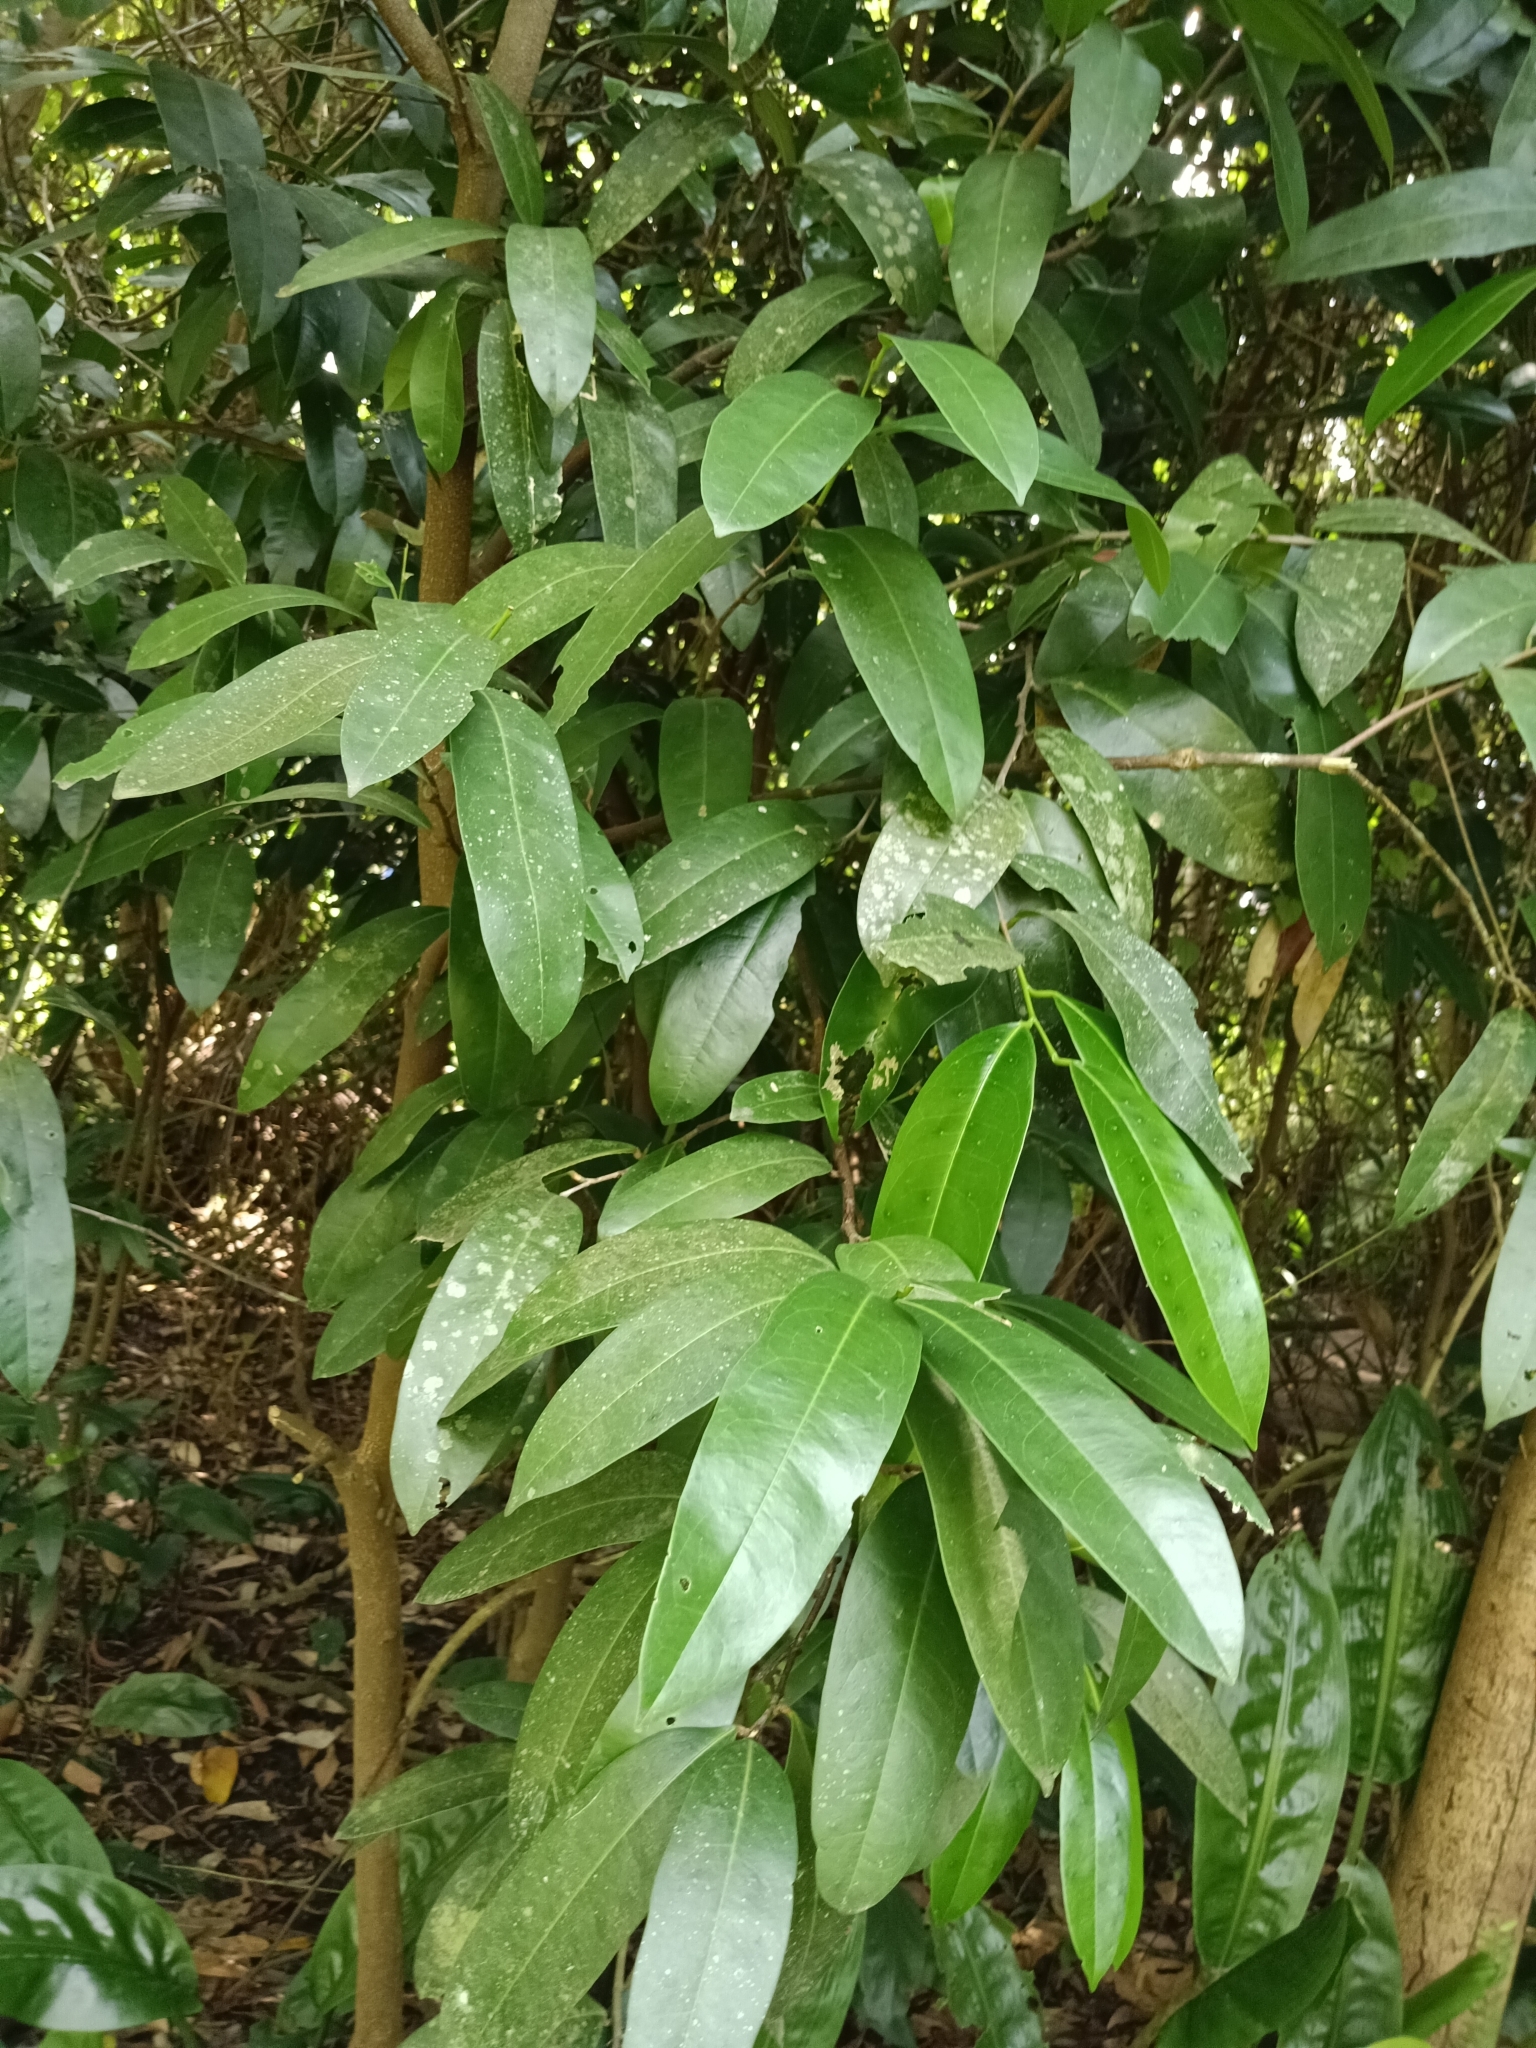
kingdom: Plantae
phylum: Tracheophyta
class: Magnoliopsida
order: Sapindales
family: Simaroubaceae
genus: Samadera
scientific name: Samadera indica
